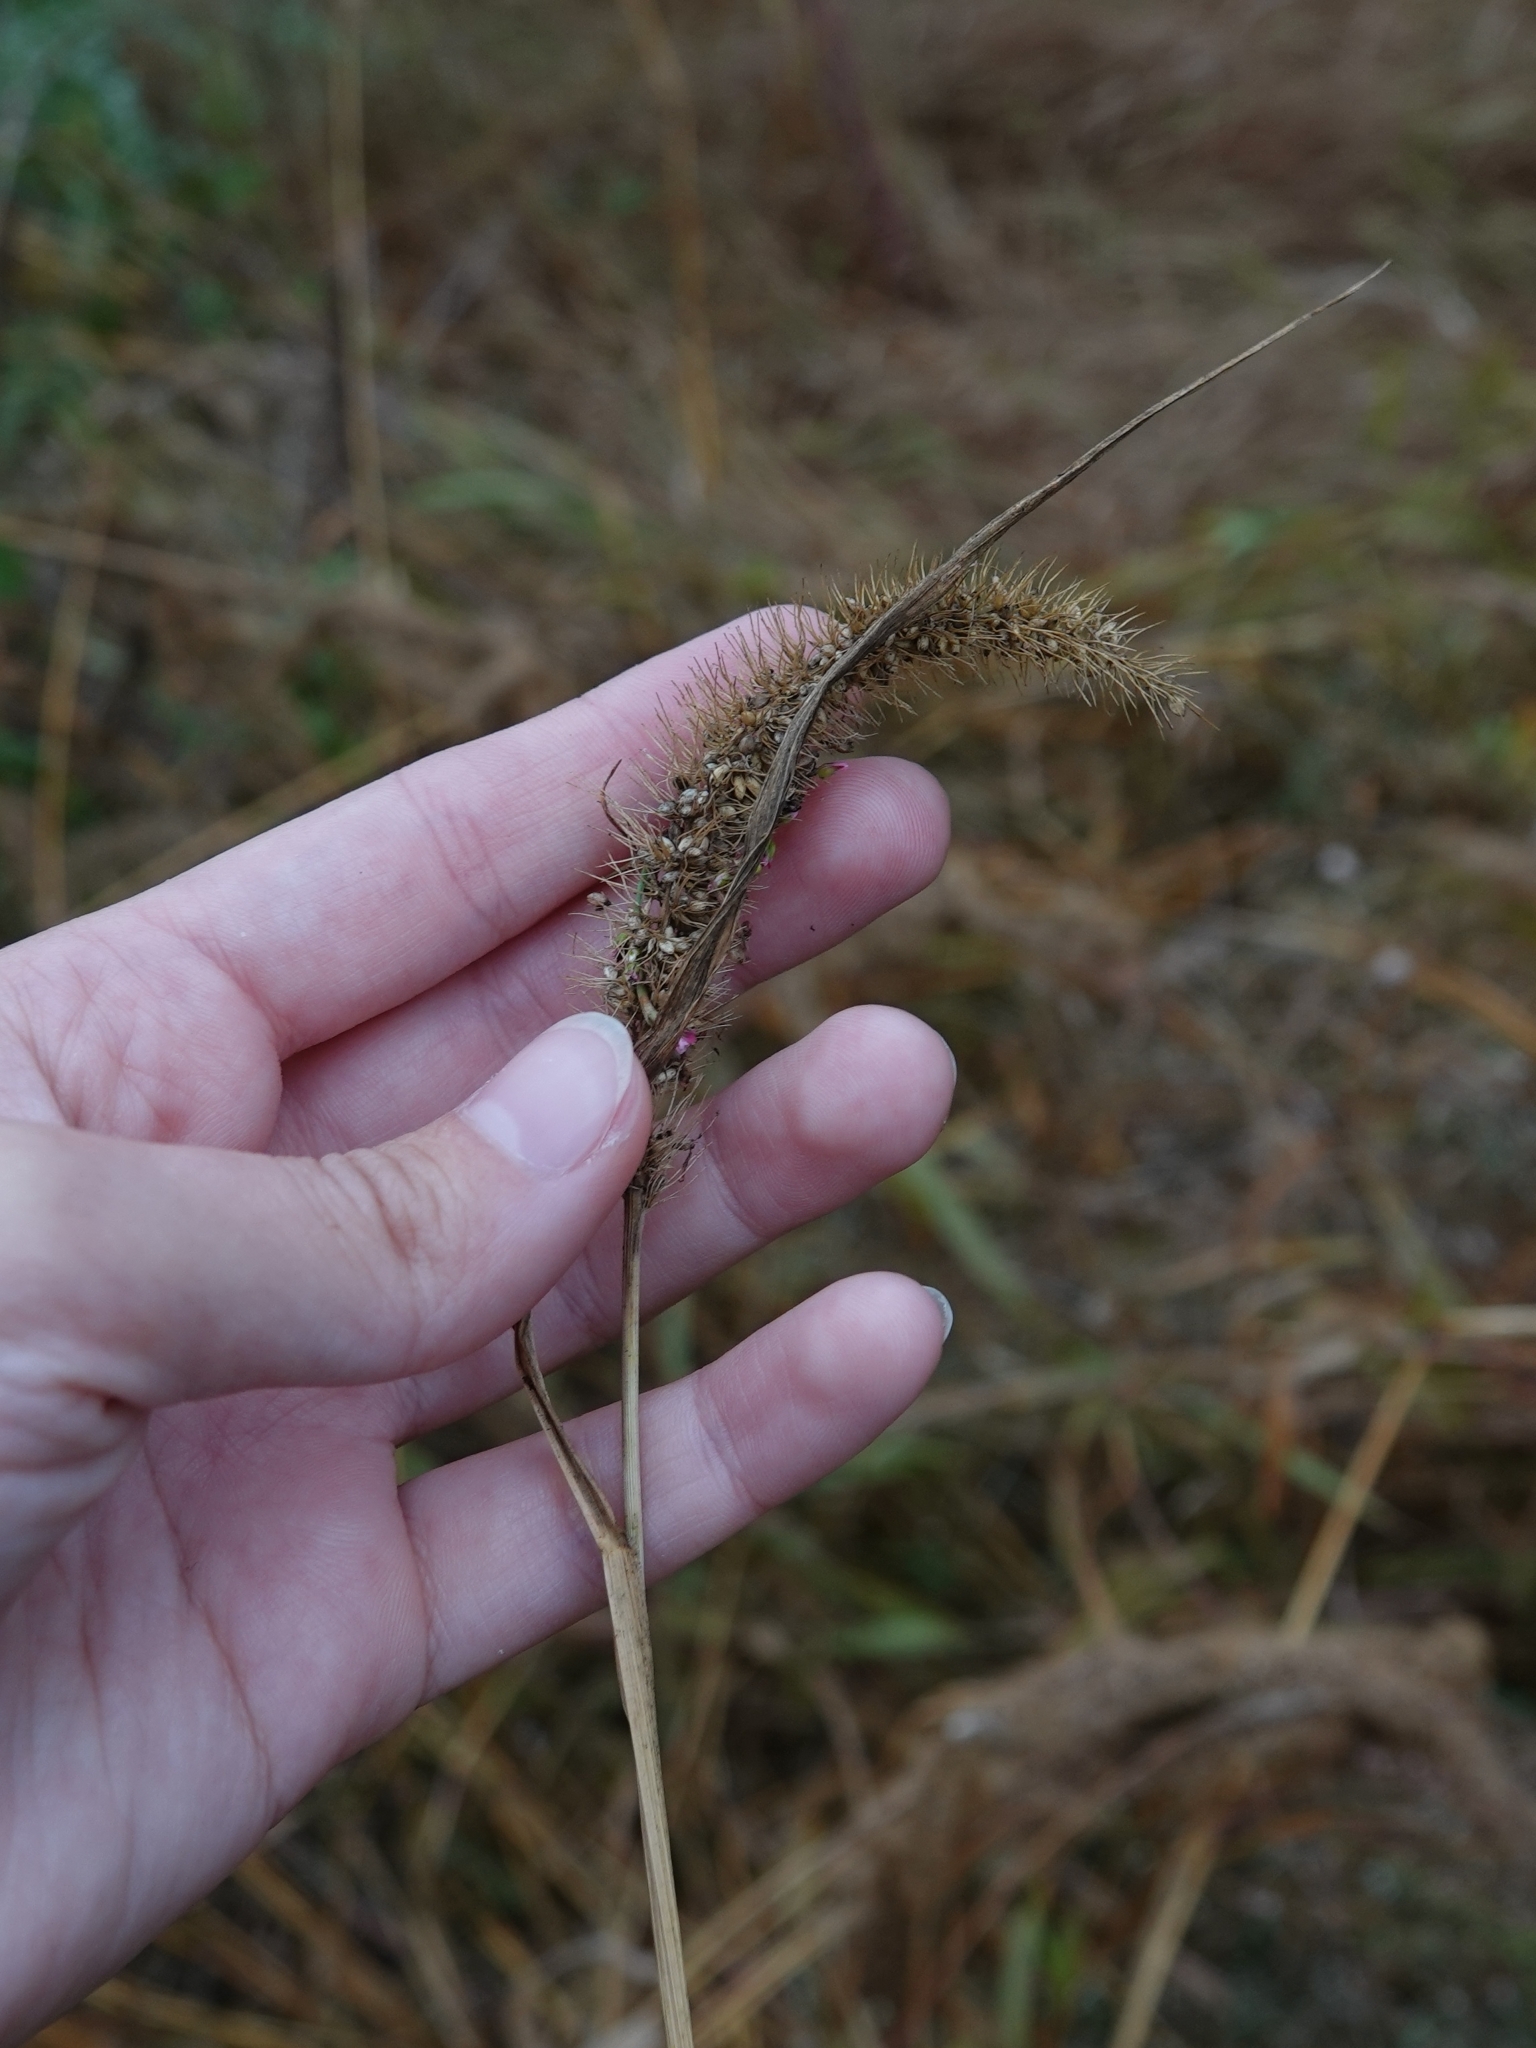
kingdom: Plantae
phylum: Tracheophyta
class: Liliopsida
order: Poales
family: Poaceae
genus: Setaria
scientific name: Setaria viridis
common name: Green bristlegrass
